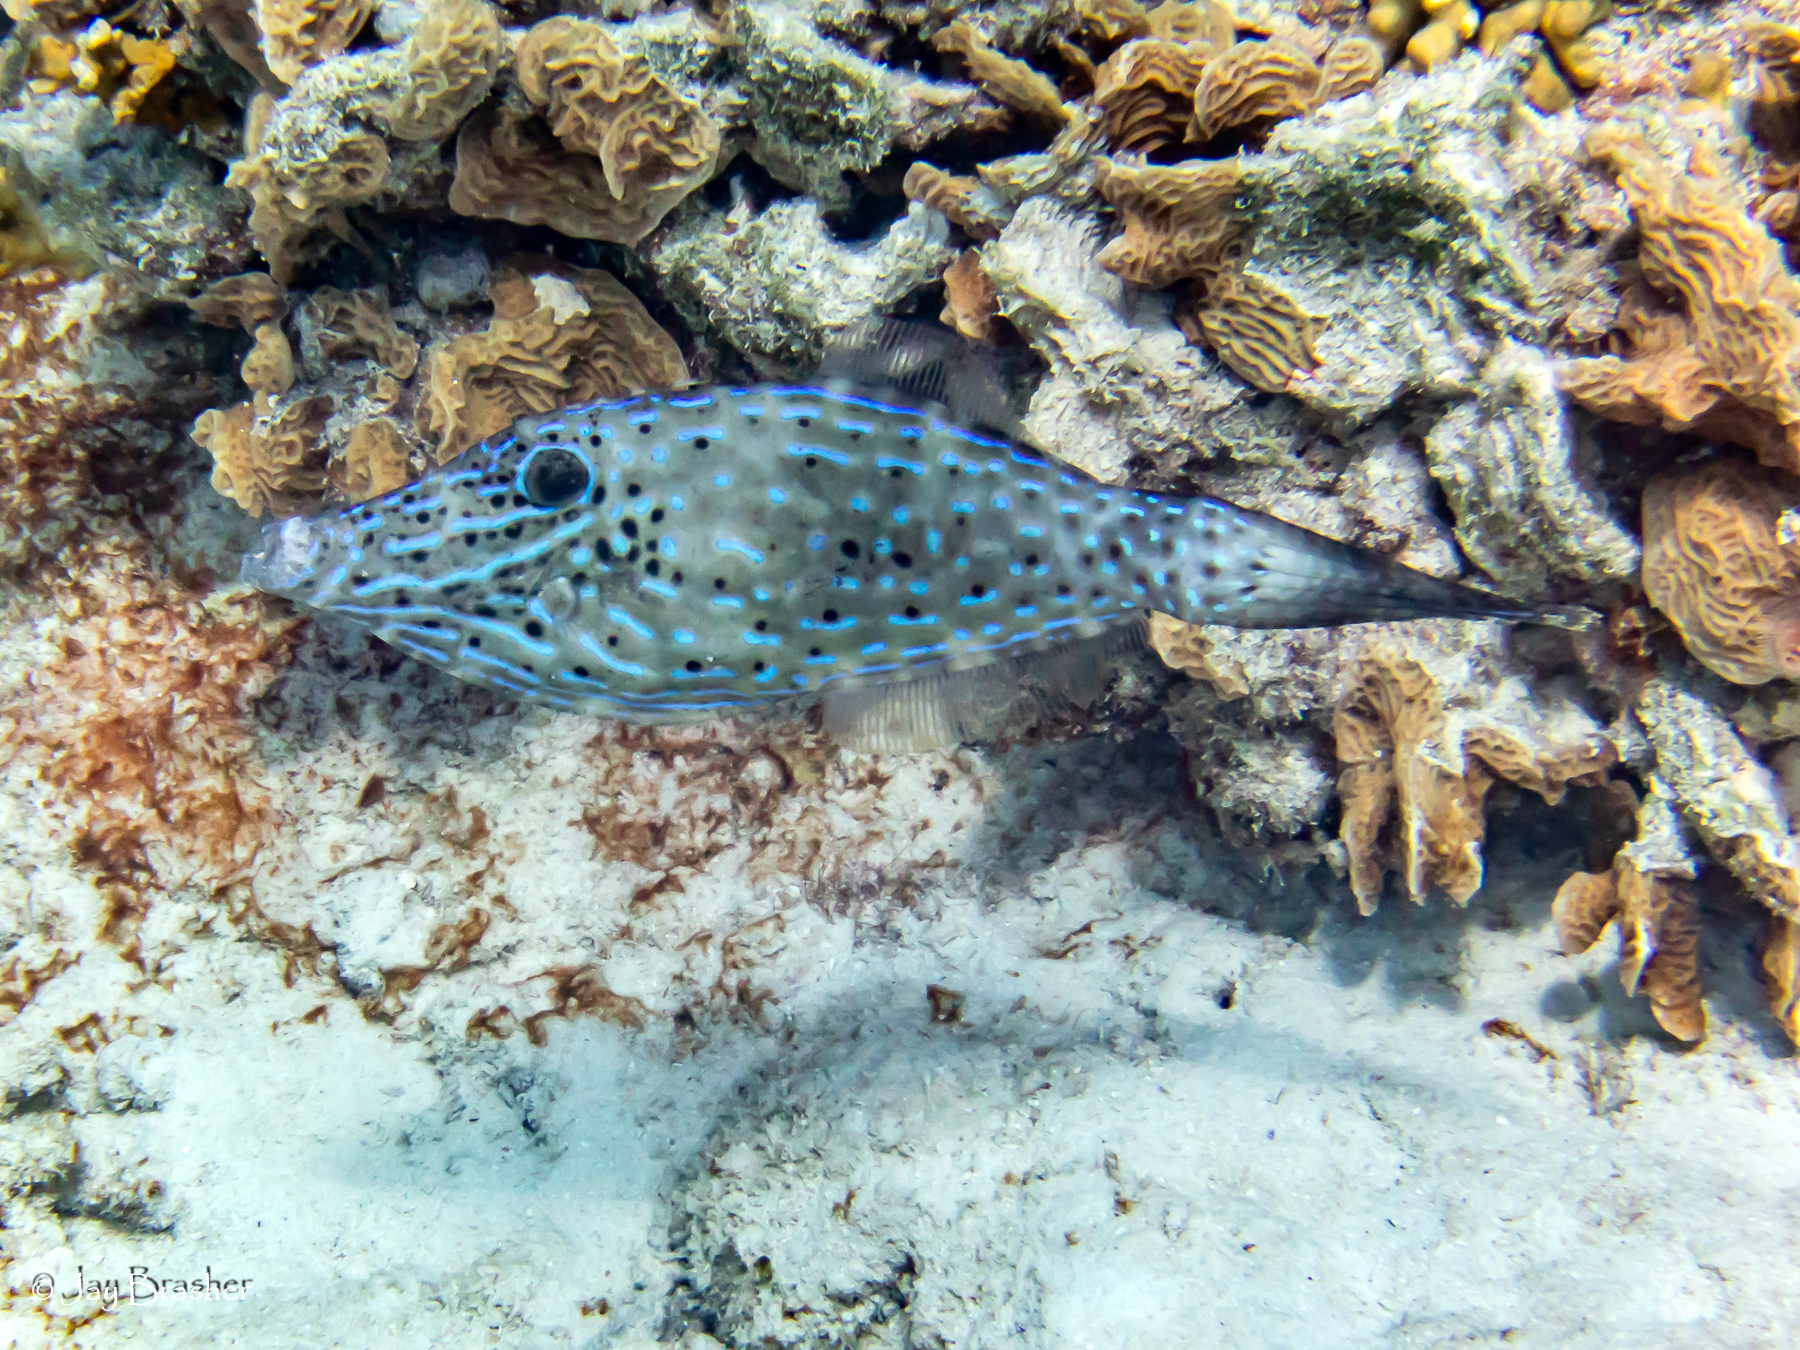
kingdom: Animalia
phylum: Chordata
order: Tetraodontiformes
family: Monacanthidae
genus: Aluterus
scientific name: Aluterus scriptus
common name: Scribbled leatherjacket filefish
